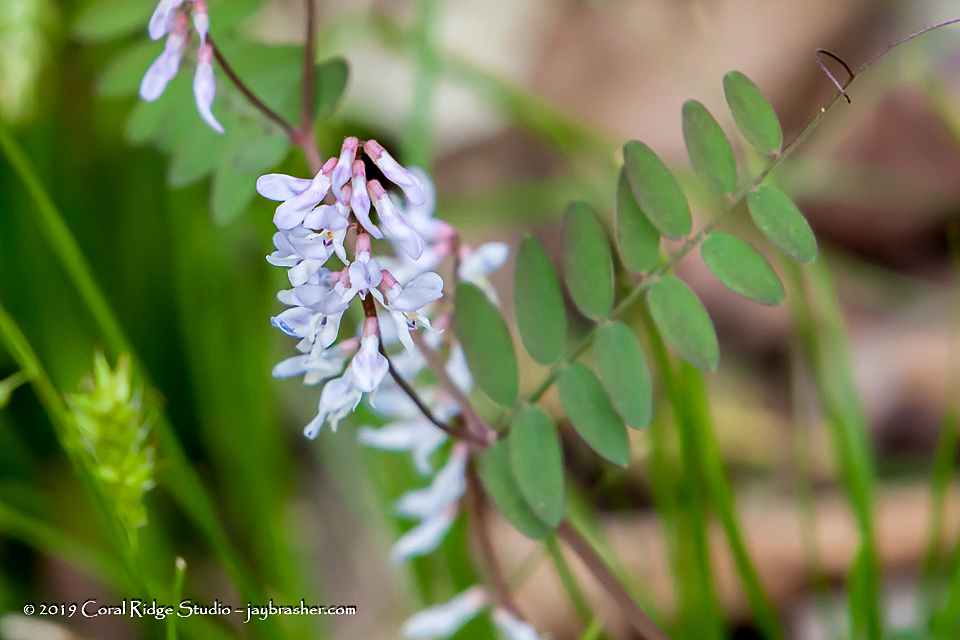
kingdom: Plantae
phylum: Tracheophyta
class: Magnoliopsida
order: Fabales
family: Fabaceae
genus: Vicia
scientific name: Vicia caroliniana
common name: Carolina vetch
